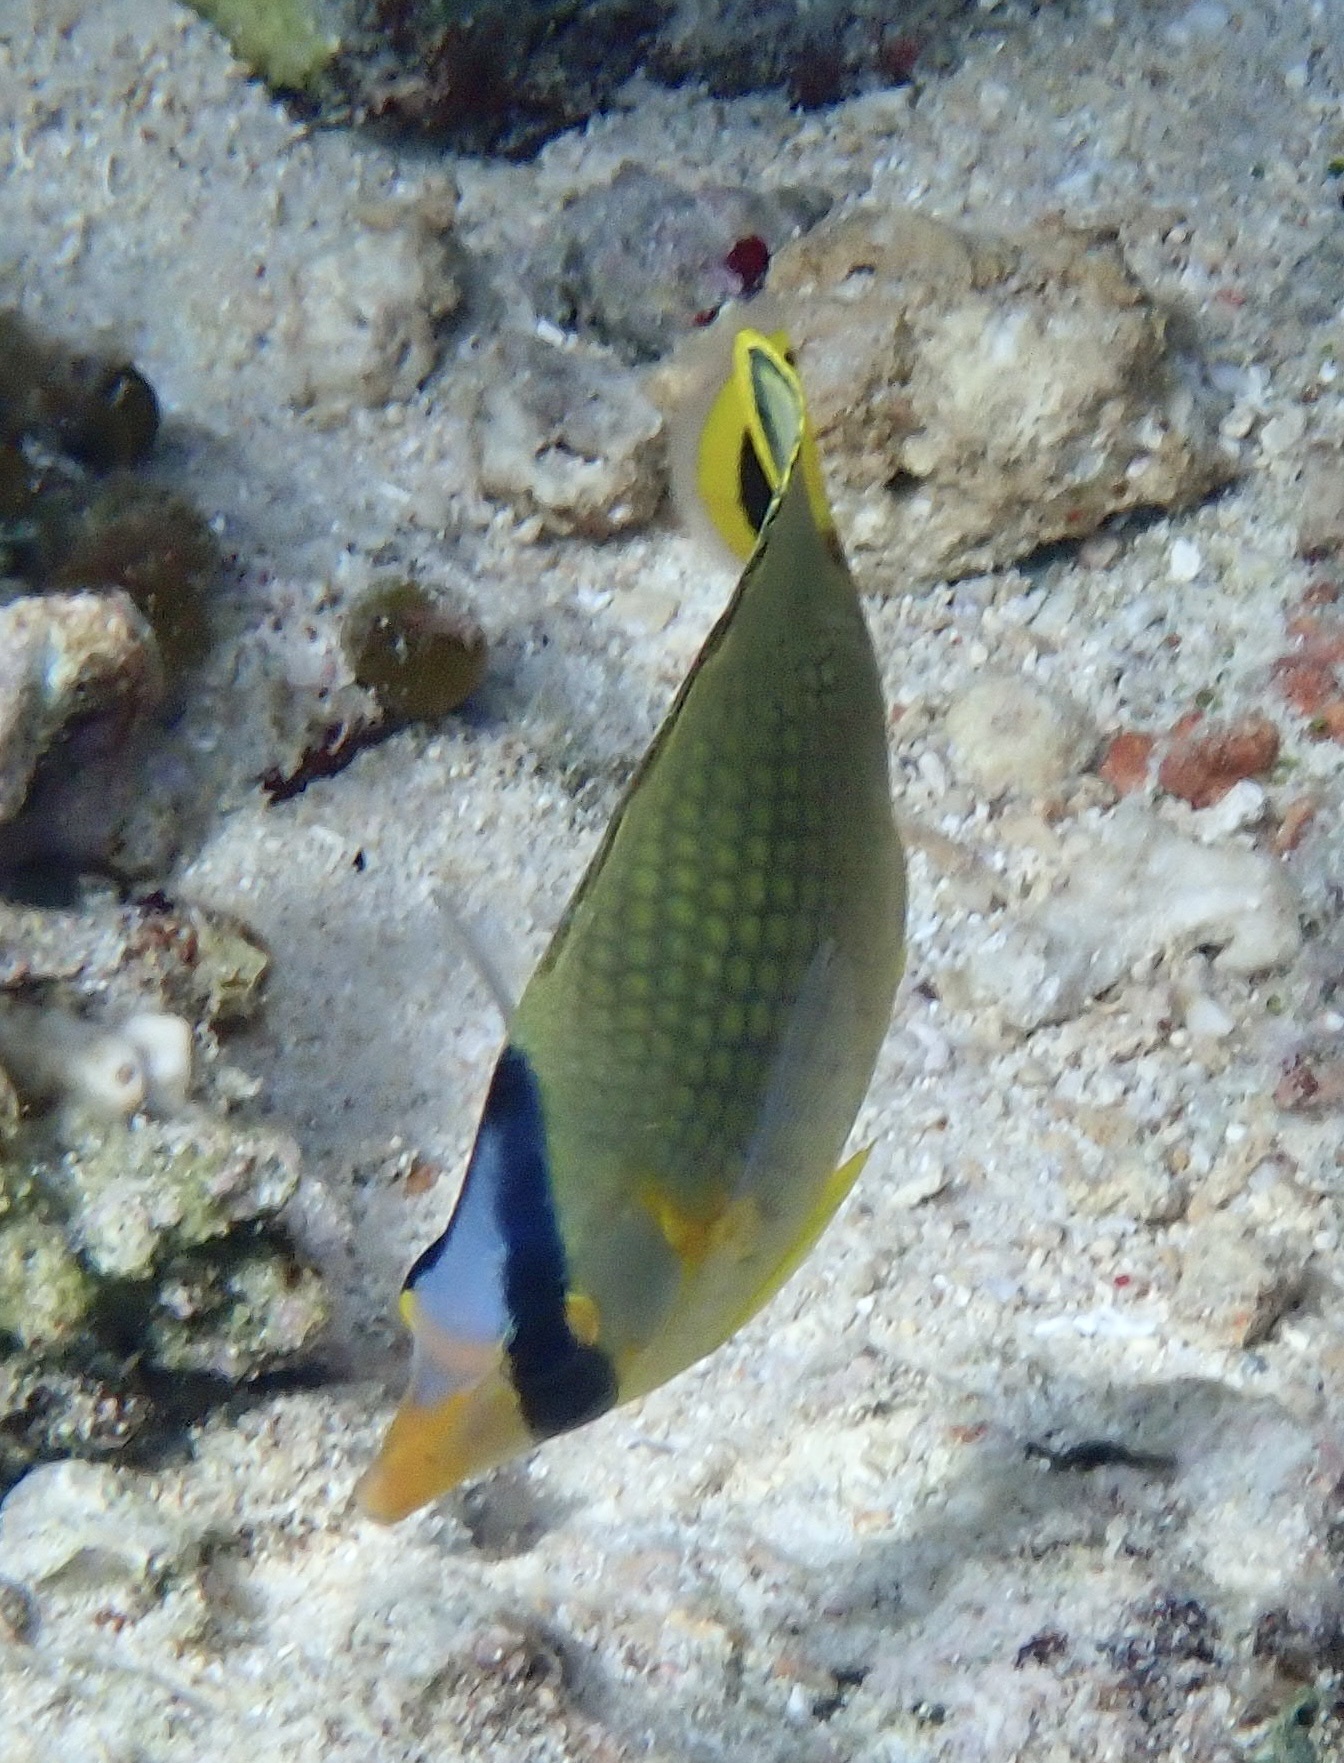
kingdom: Animalia
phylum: Chordata
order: Perciformes
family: Chaetodontidae
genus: Chaetodon
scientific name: Chaetodon rafflesii
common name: Latticed butterflyfish
